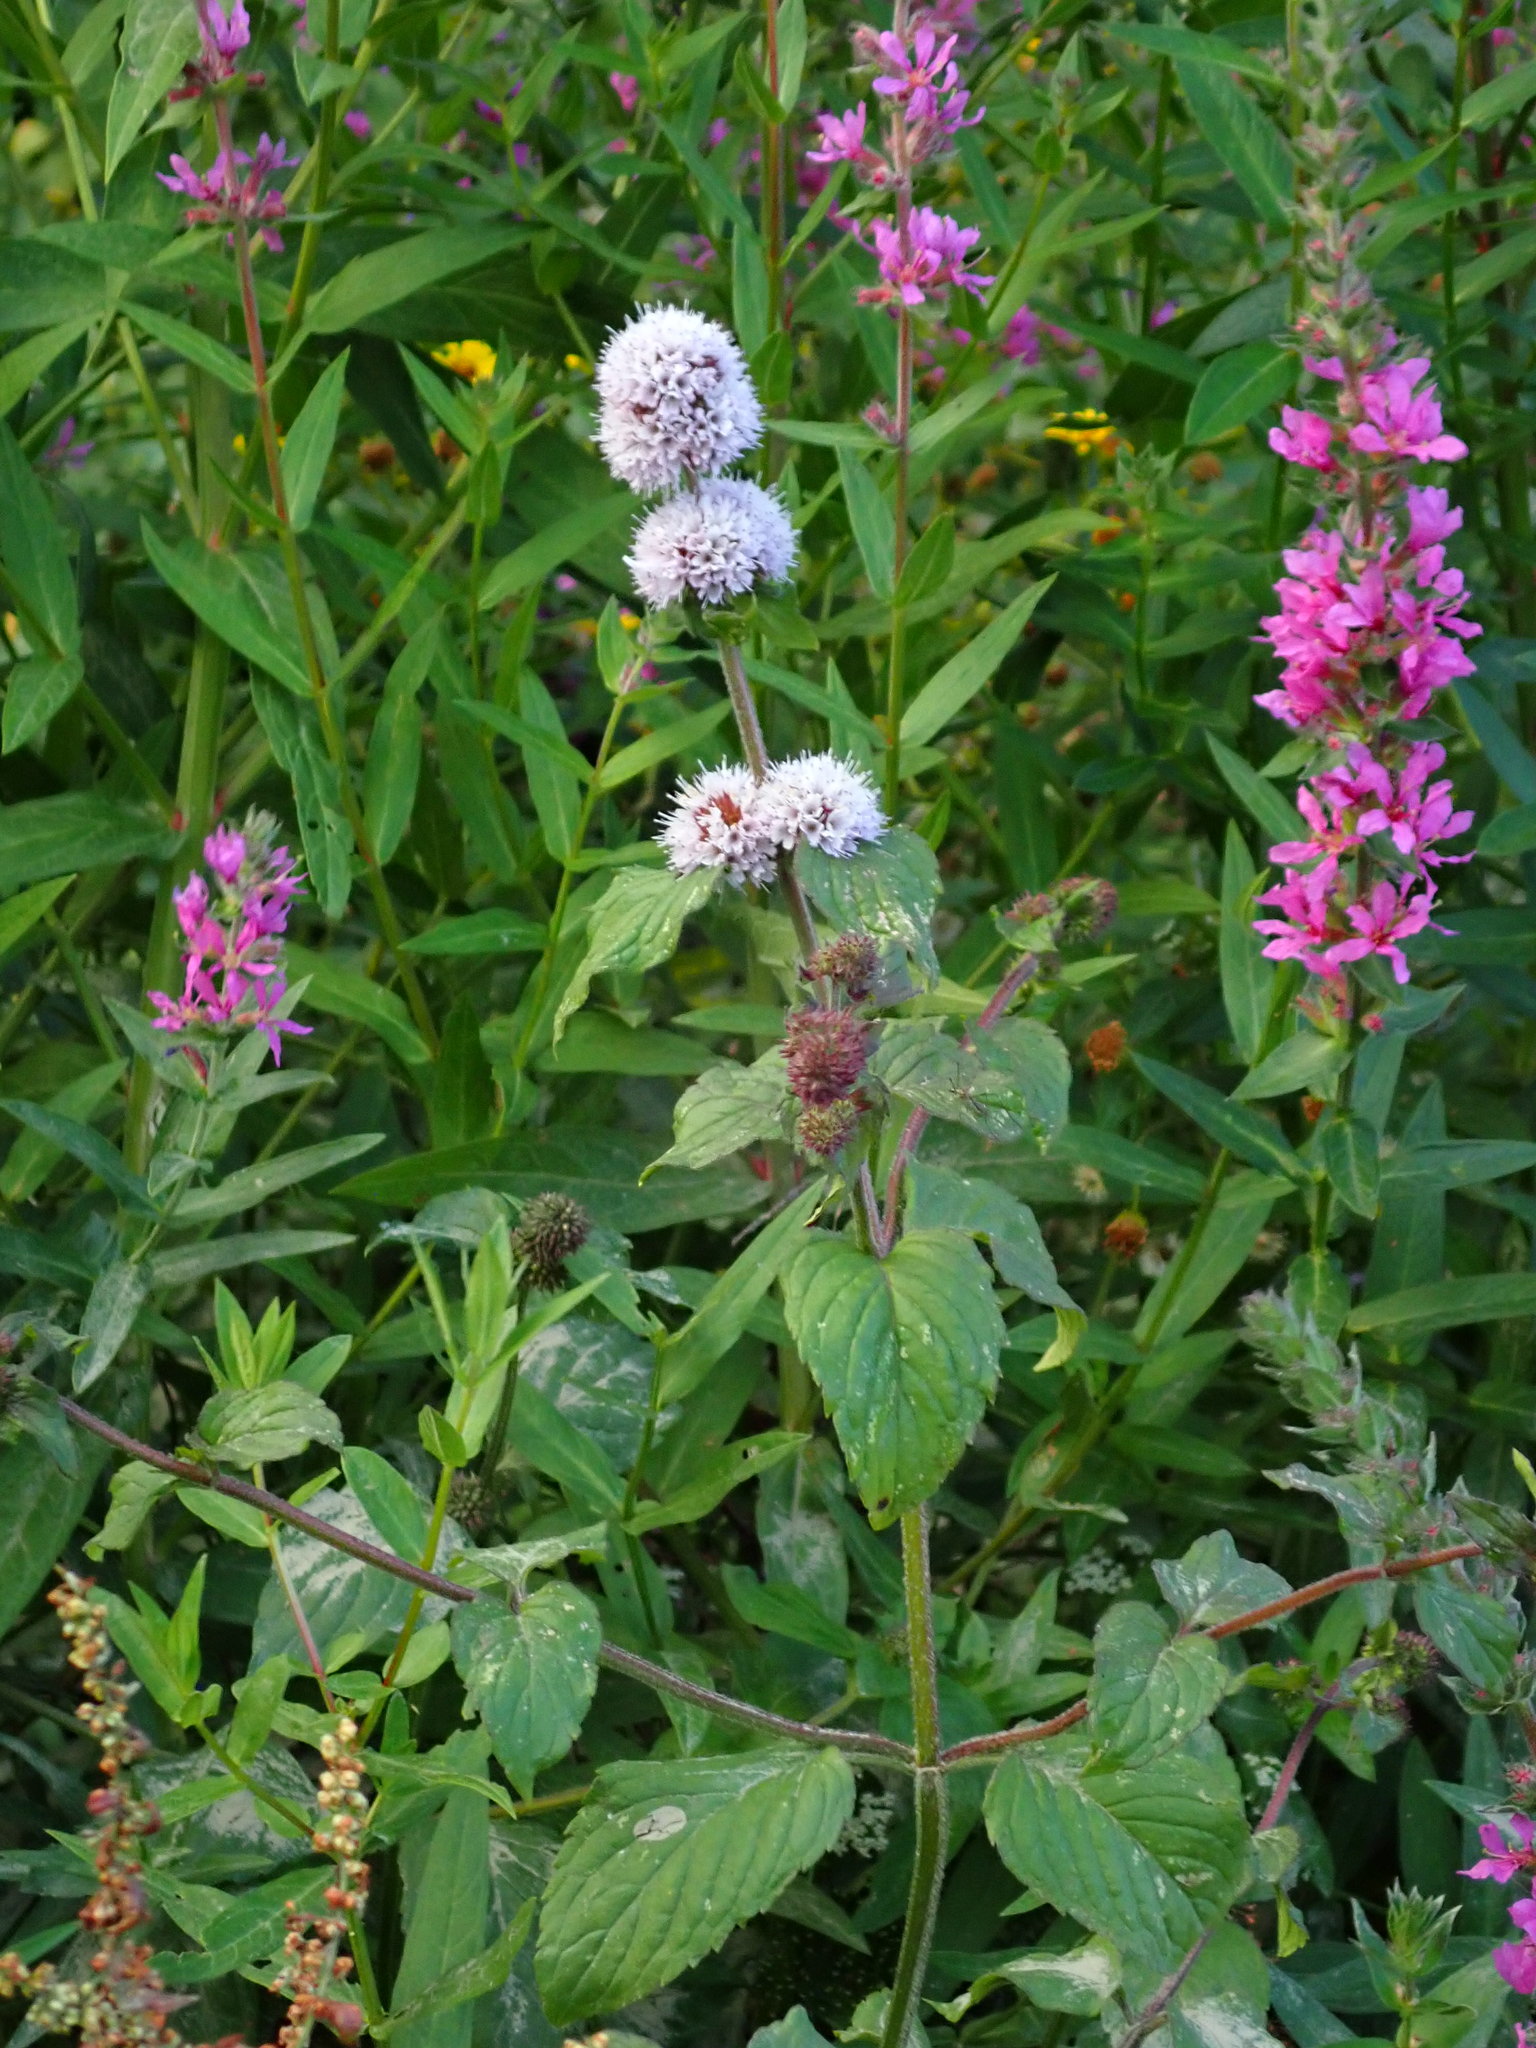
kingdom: Plantae
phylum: Tracheophyta
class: Magnoliopsida
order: Lamiales
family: Lamiaceae
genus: Mentha
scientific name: Mentha aquatica
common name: Water mint
